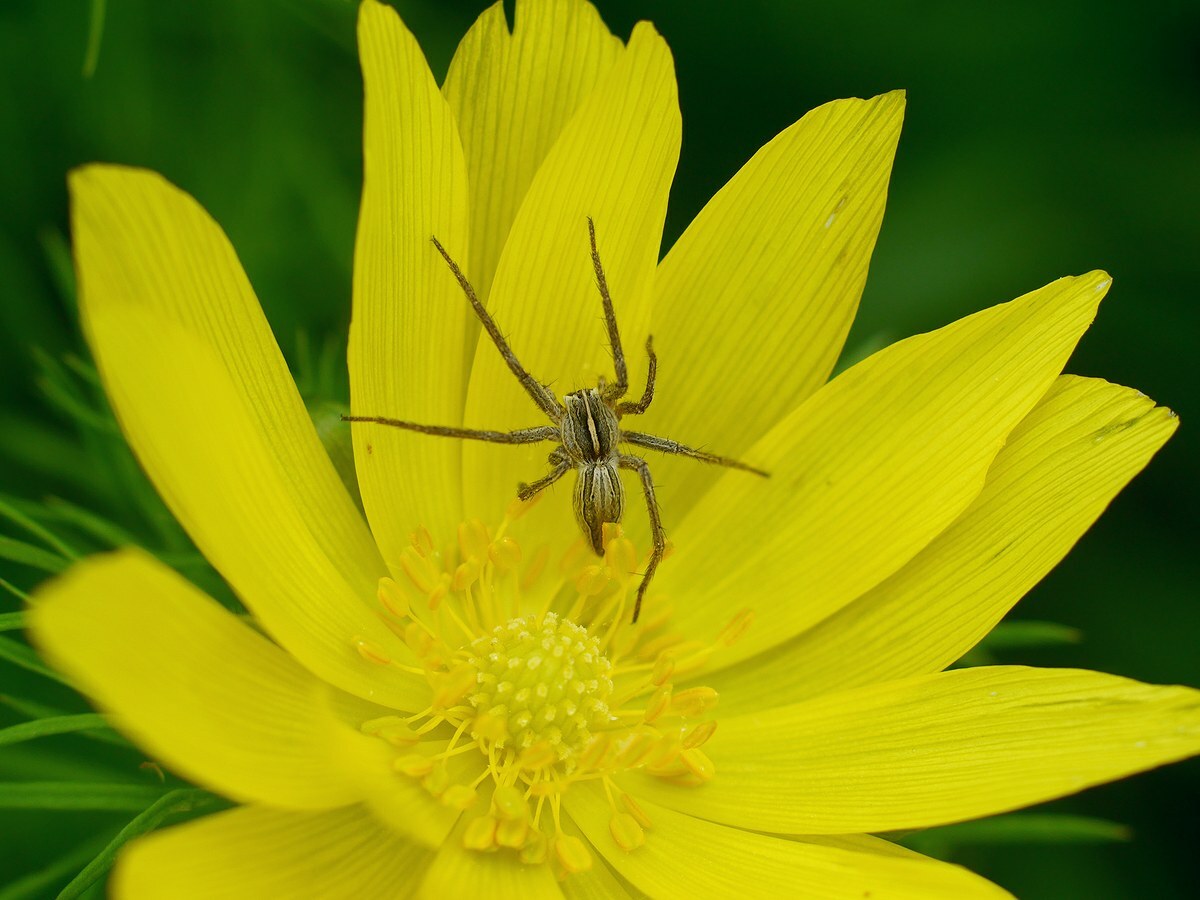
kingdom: Animalia
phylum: Arthropoda
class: Arachnida
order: Araneae
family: Pisauridae
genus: Pisaura
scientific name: Pisaura
